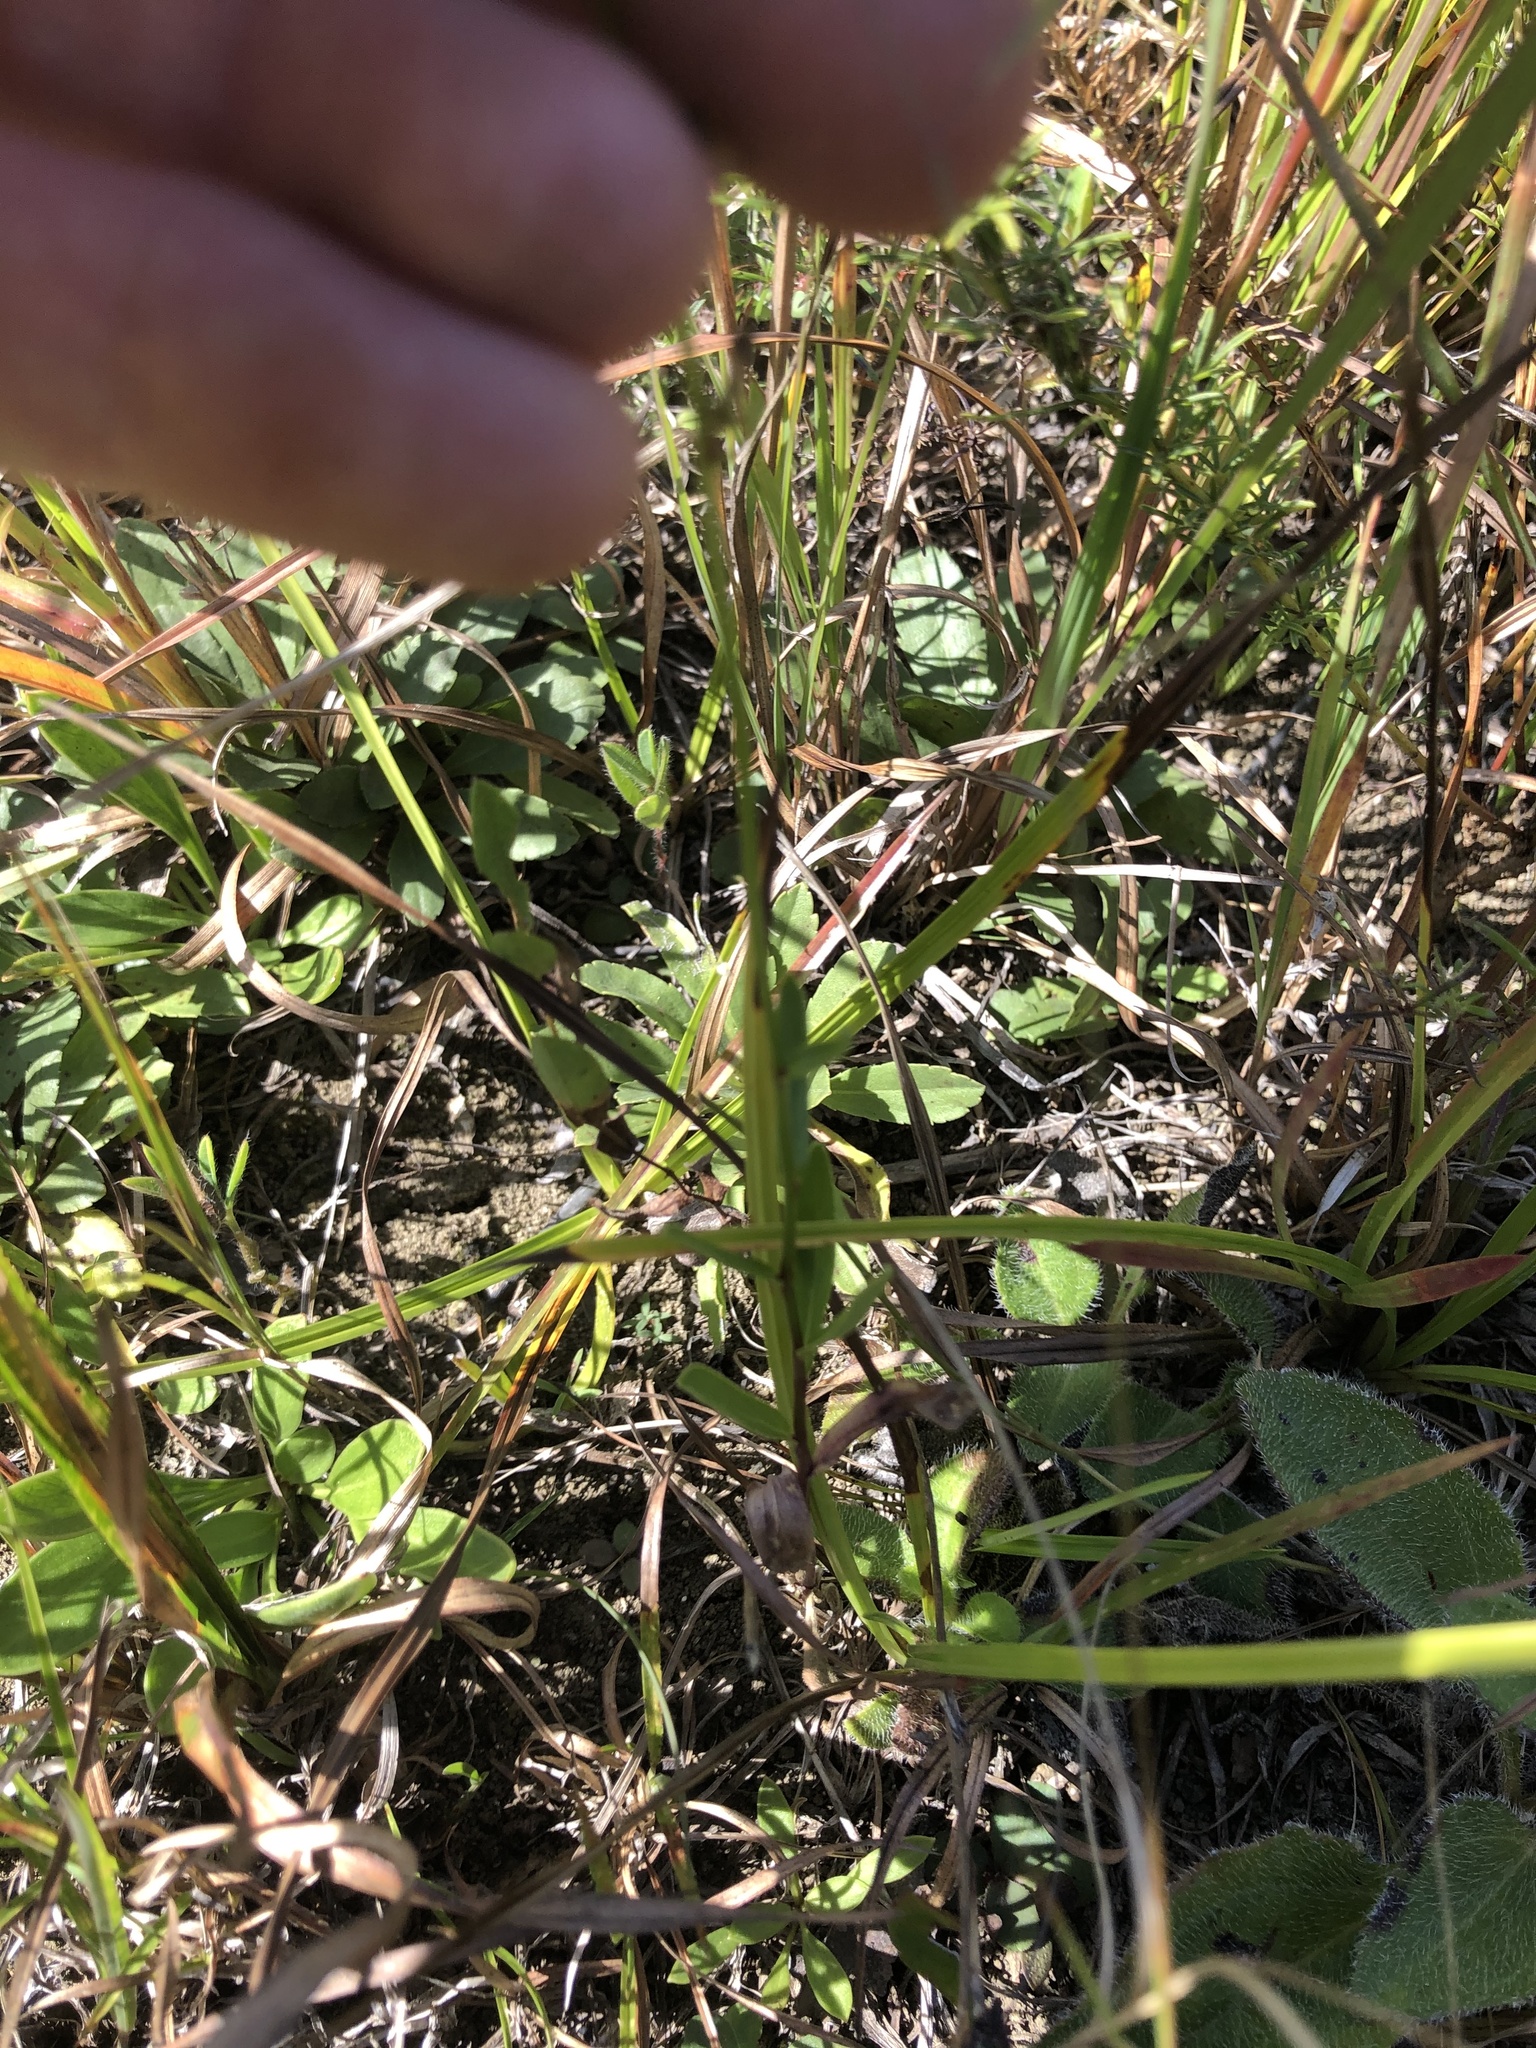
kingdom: Plantae
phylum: Tracheophyta
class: Magnoliopsida
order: Fabales
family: Fabaceae
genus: Dalea
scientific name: Dalea purpurea
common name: Purple prairie-clover
